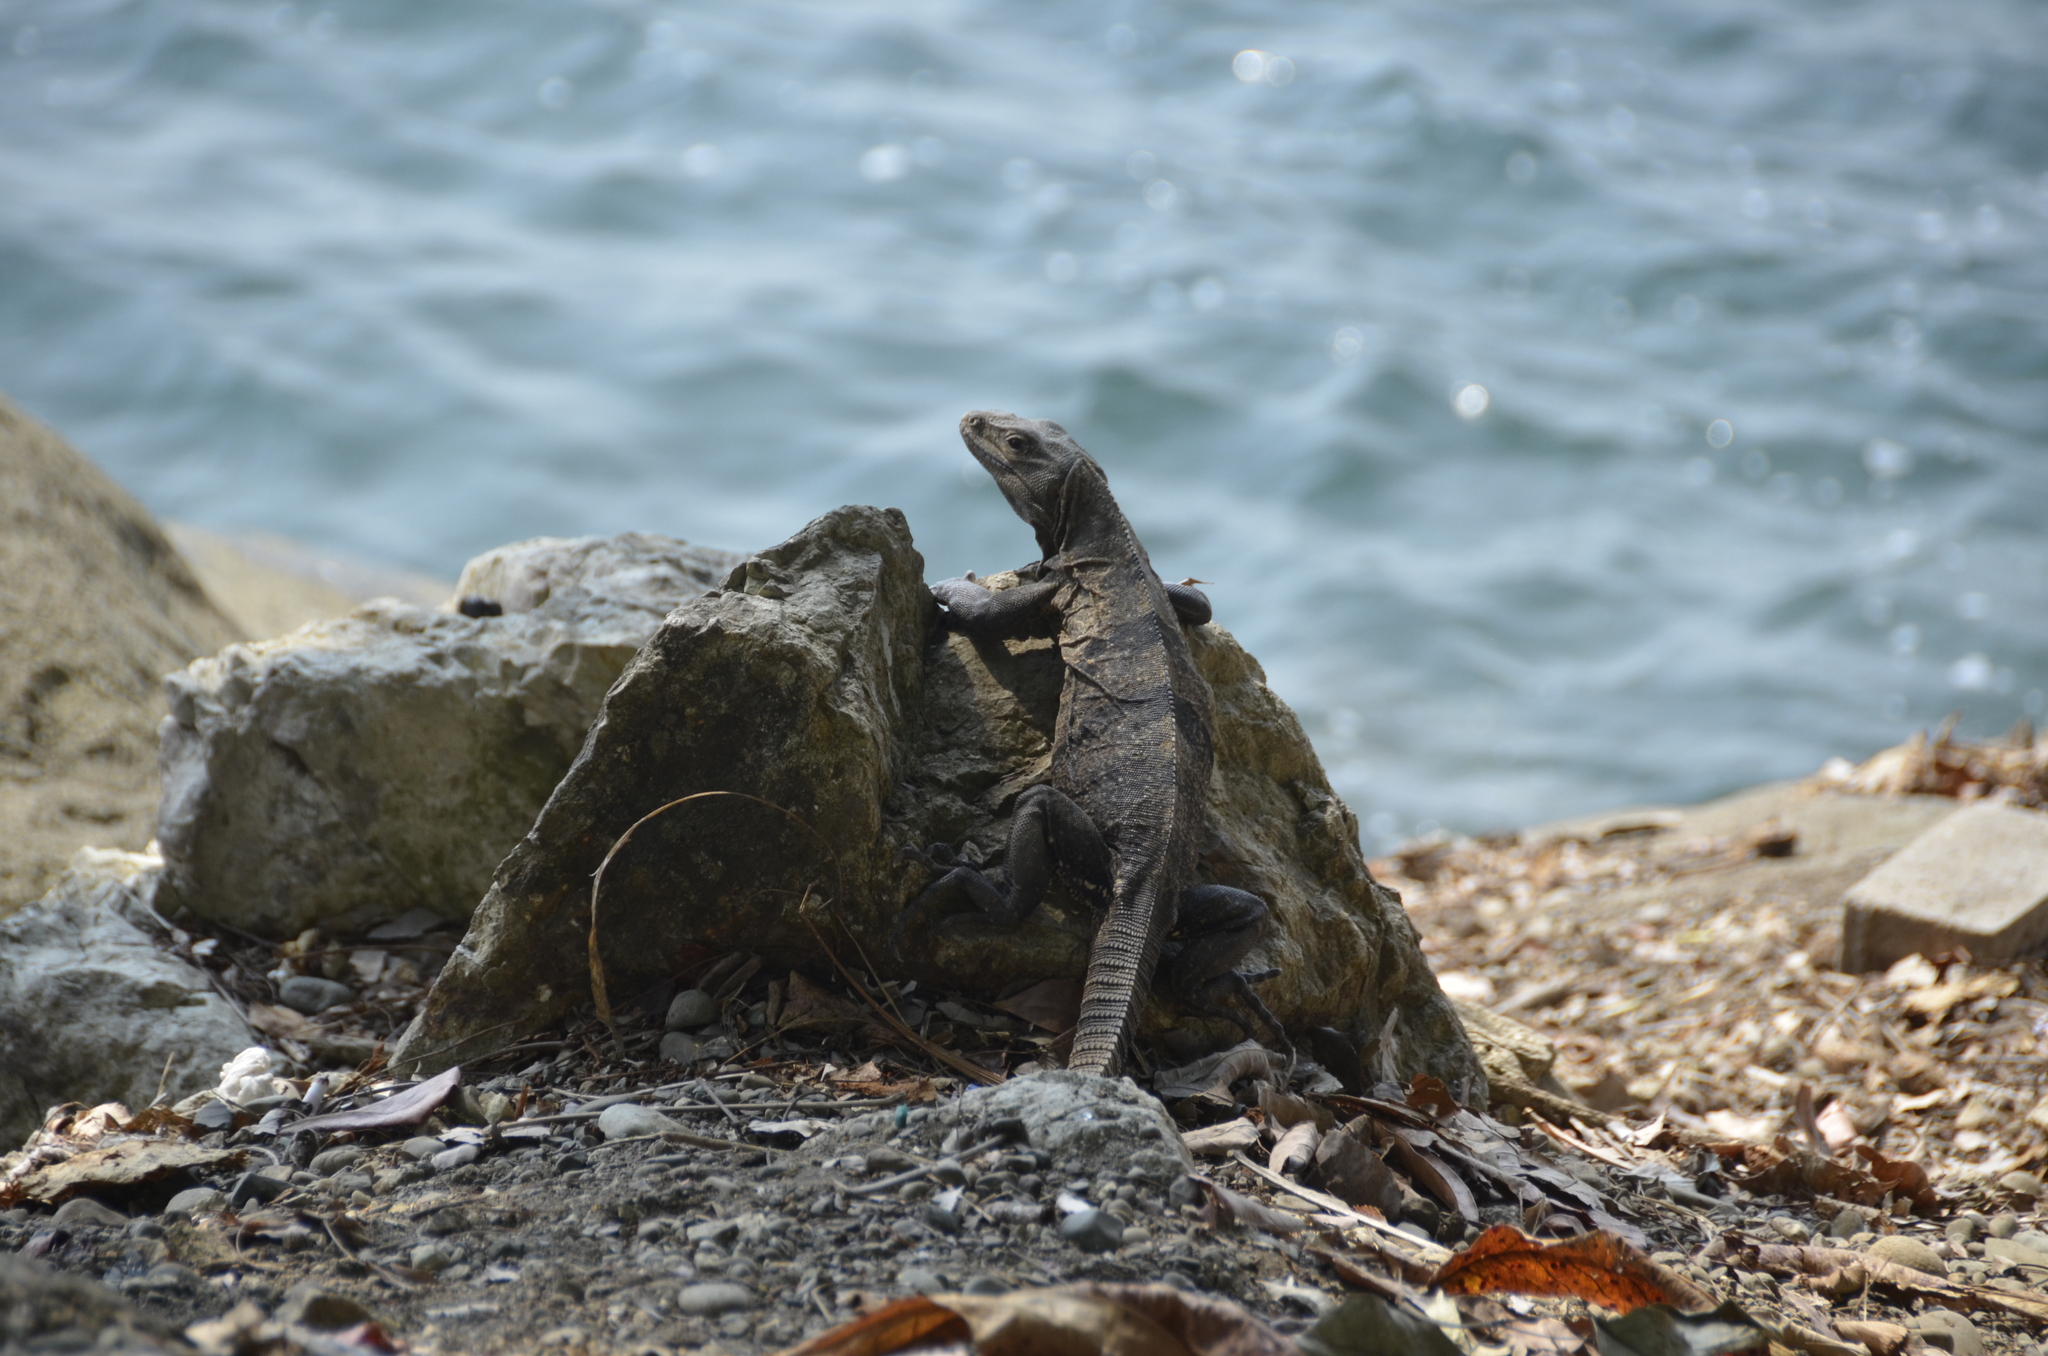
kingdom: Animalia
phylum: Chordata
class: Squamata
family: Iguanidae
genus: Ctenosaura
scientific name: Ctenosaura similis
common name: Black spiny-tailed iguana
